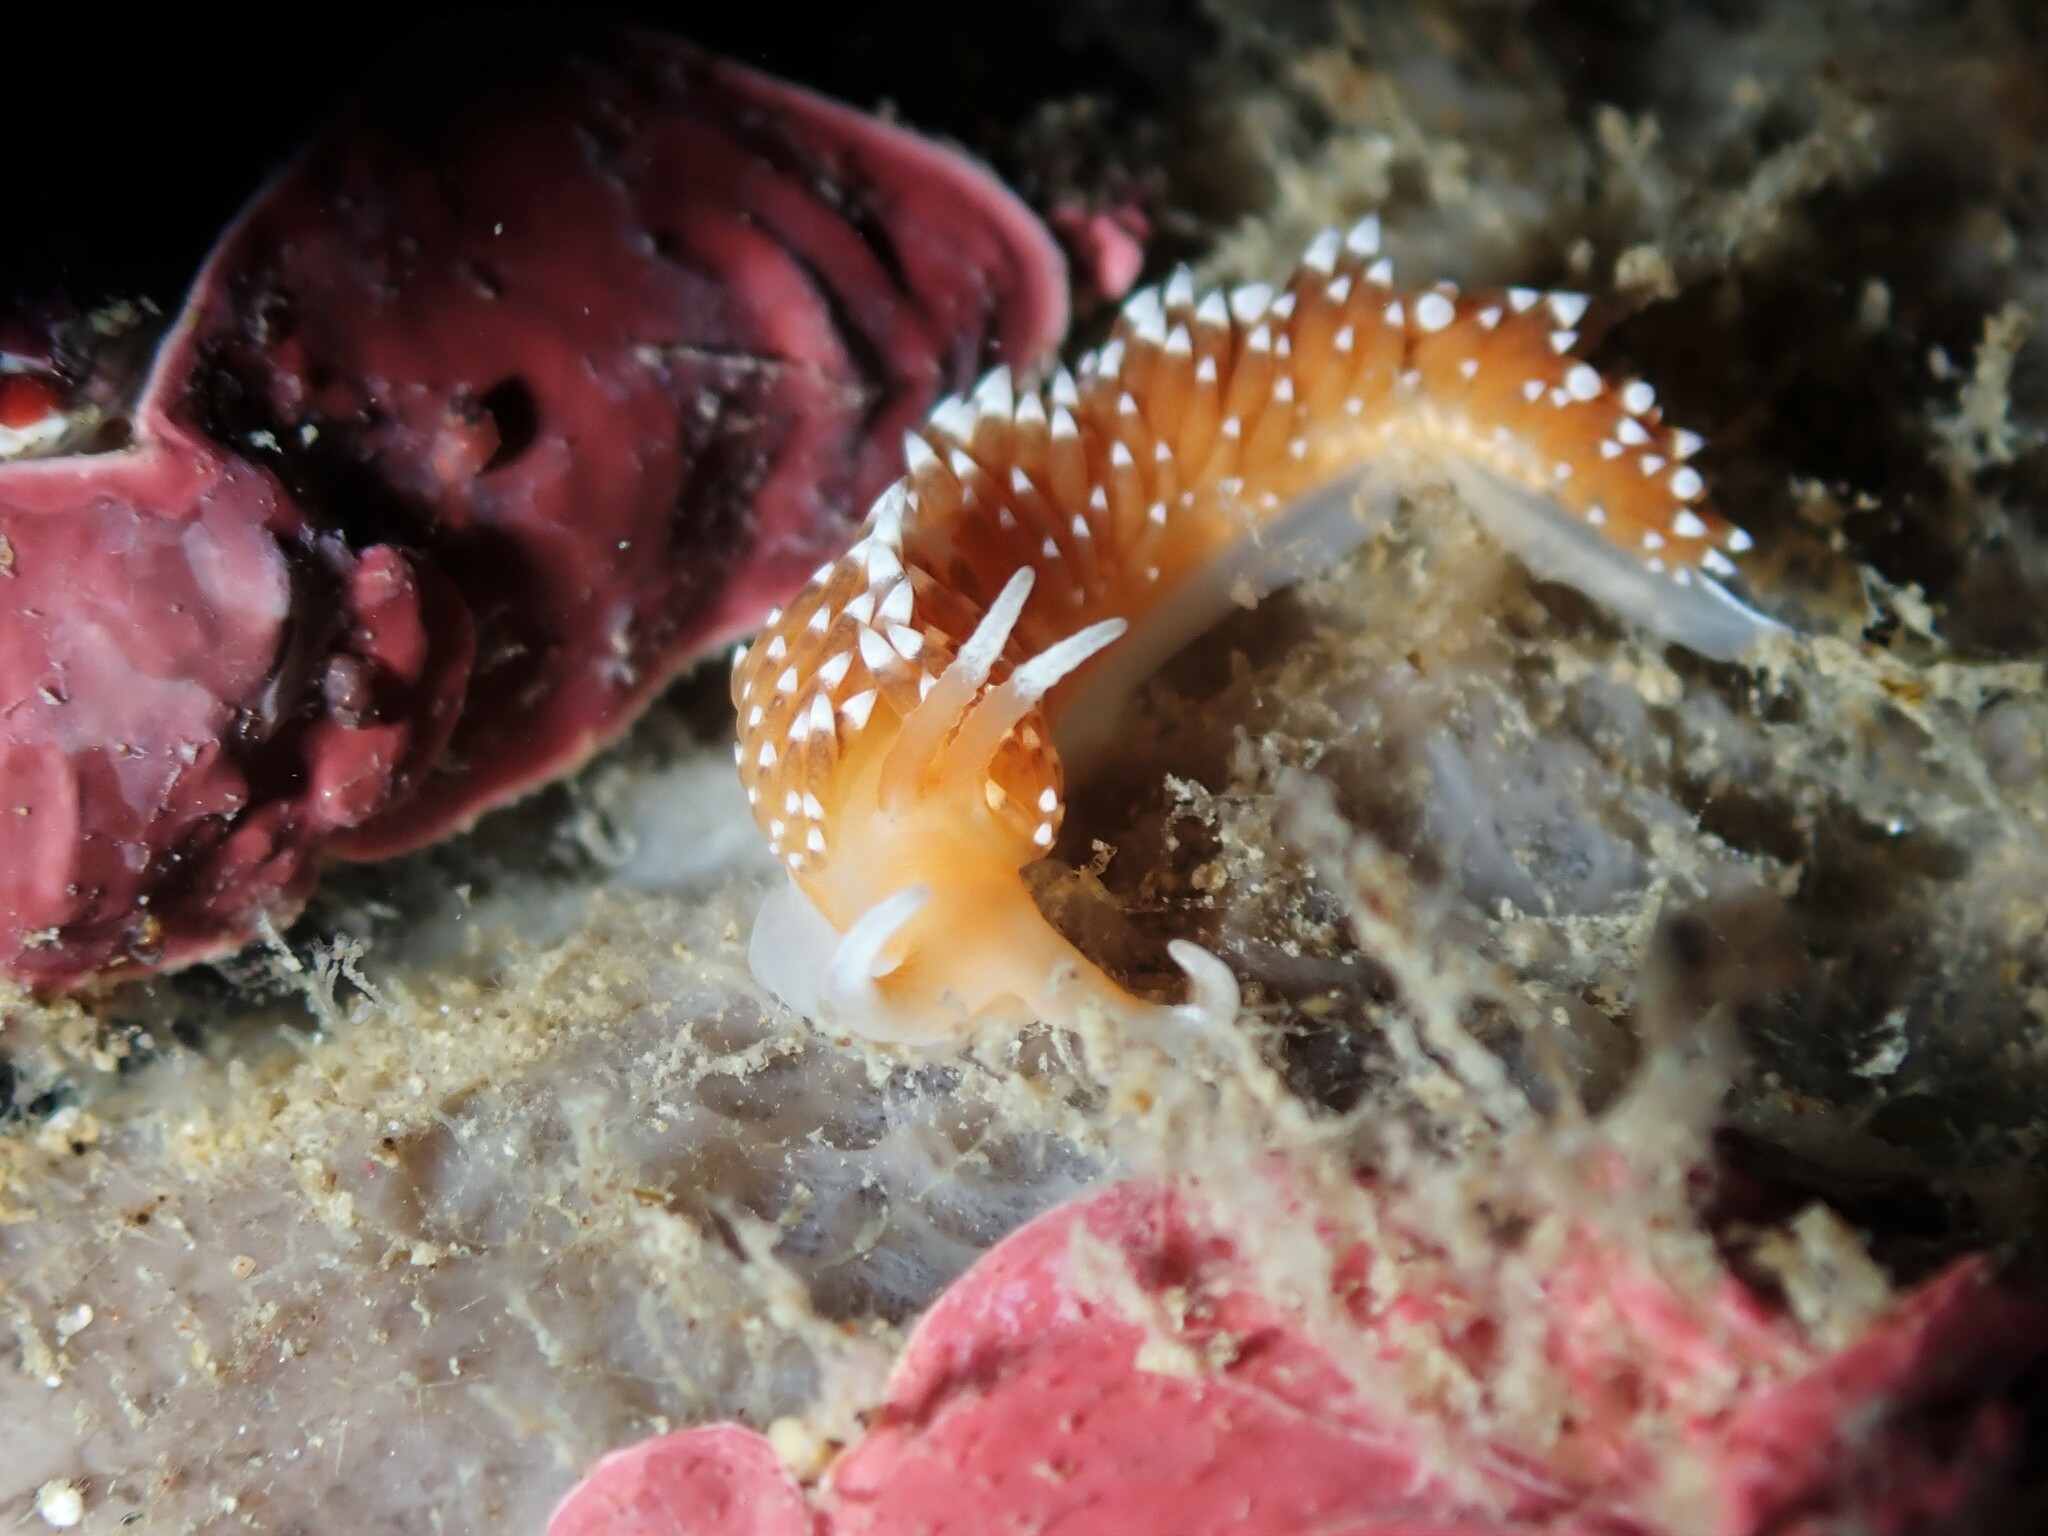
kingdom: Animalia
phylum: Mollusca
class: Gastropoda
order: Nudibranchia
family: Facelinidae
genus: Phidiana
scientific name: Phidiana milleri
